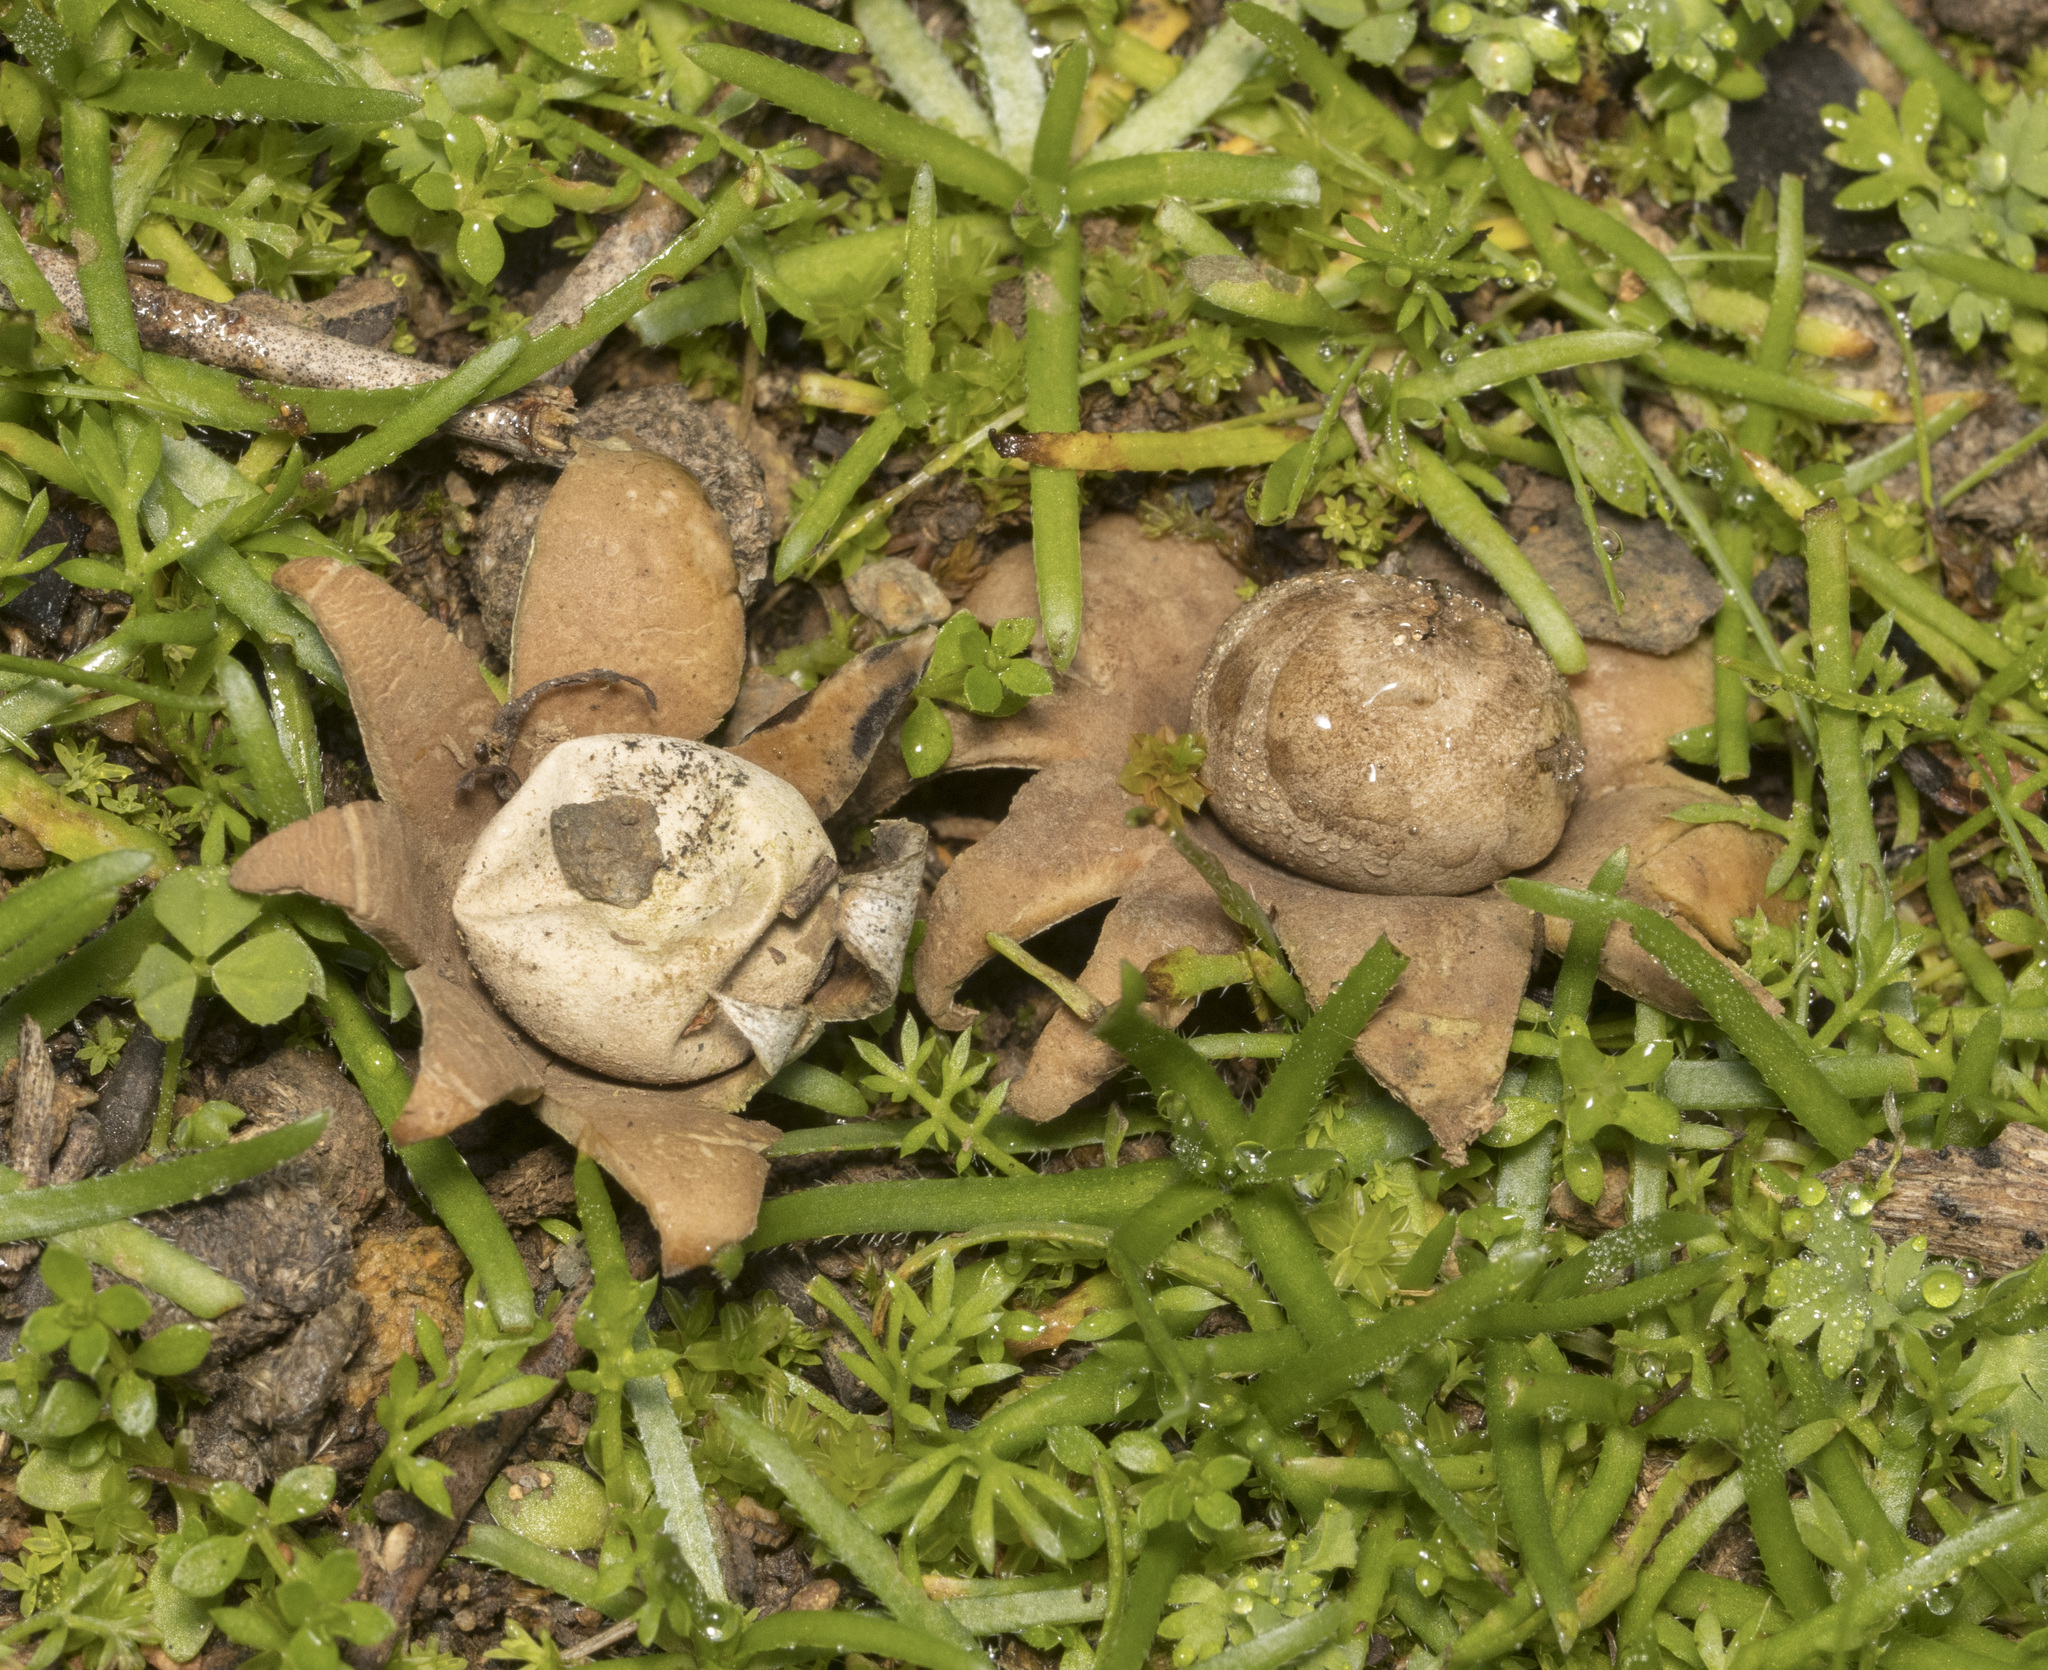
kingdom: Fungi
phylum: Basidiomycota
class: Agaricomycetes
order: Geastrales
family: Geastraceae
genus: Geastrum
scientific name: Geastrum floriforme
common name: Daisy earthstar
